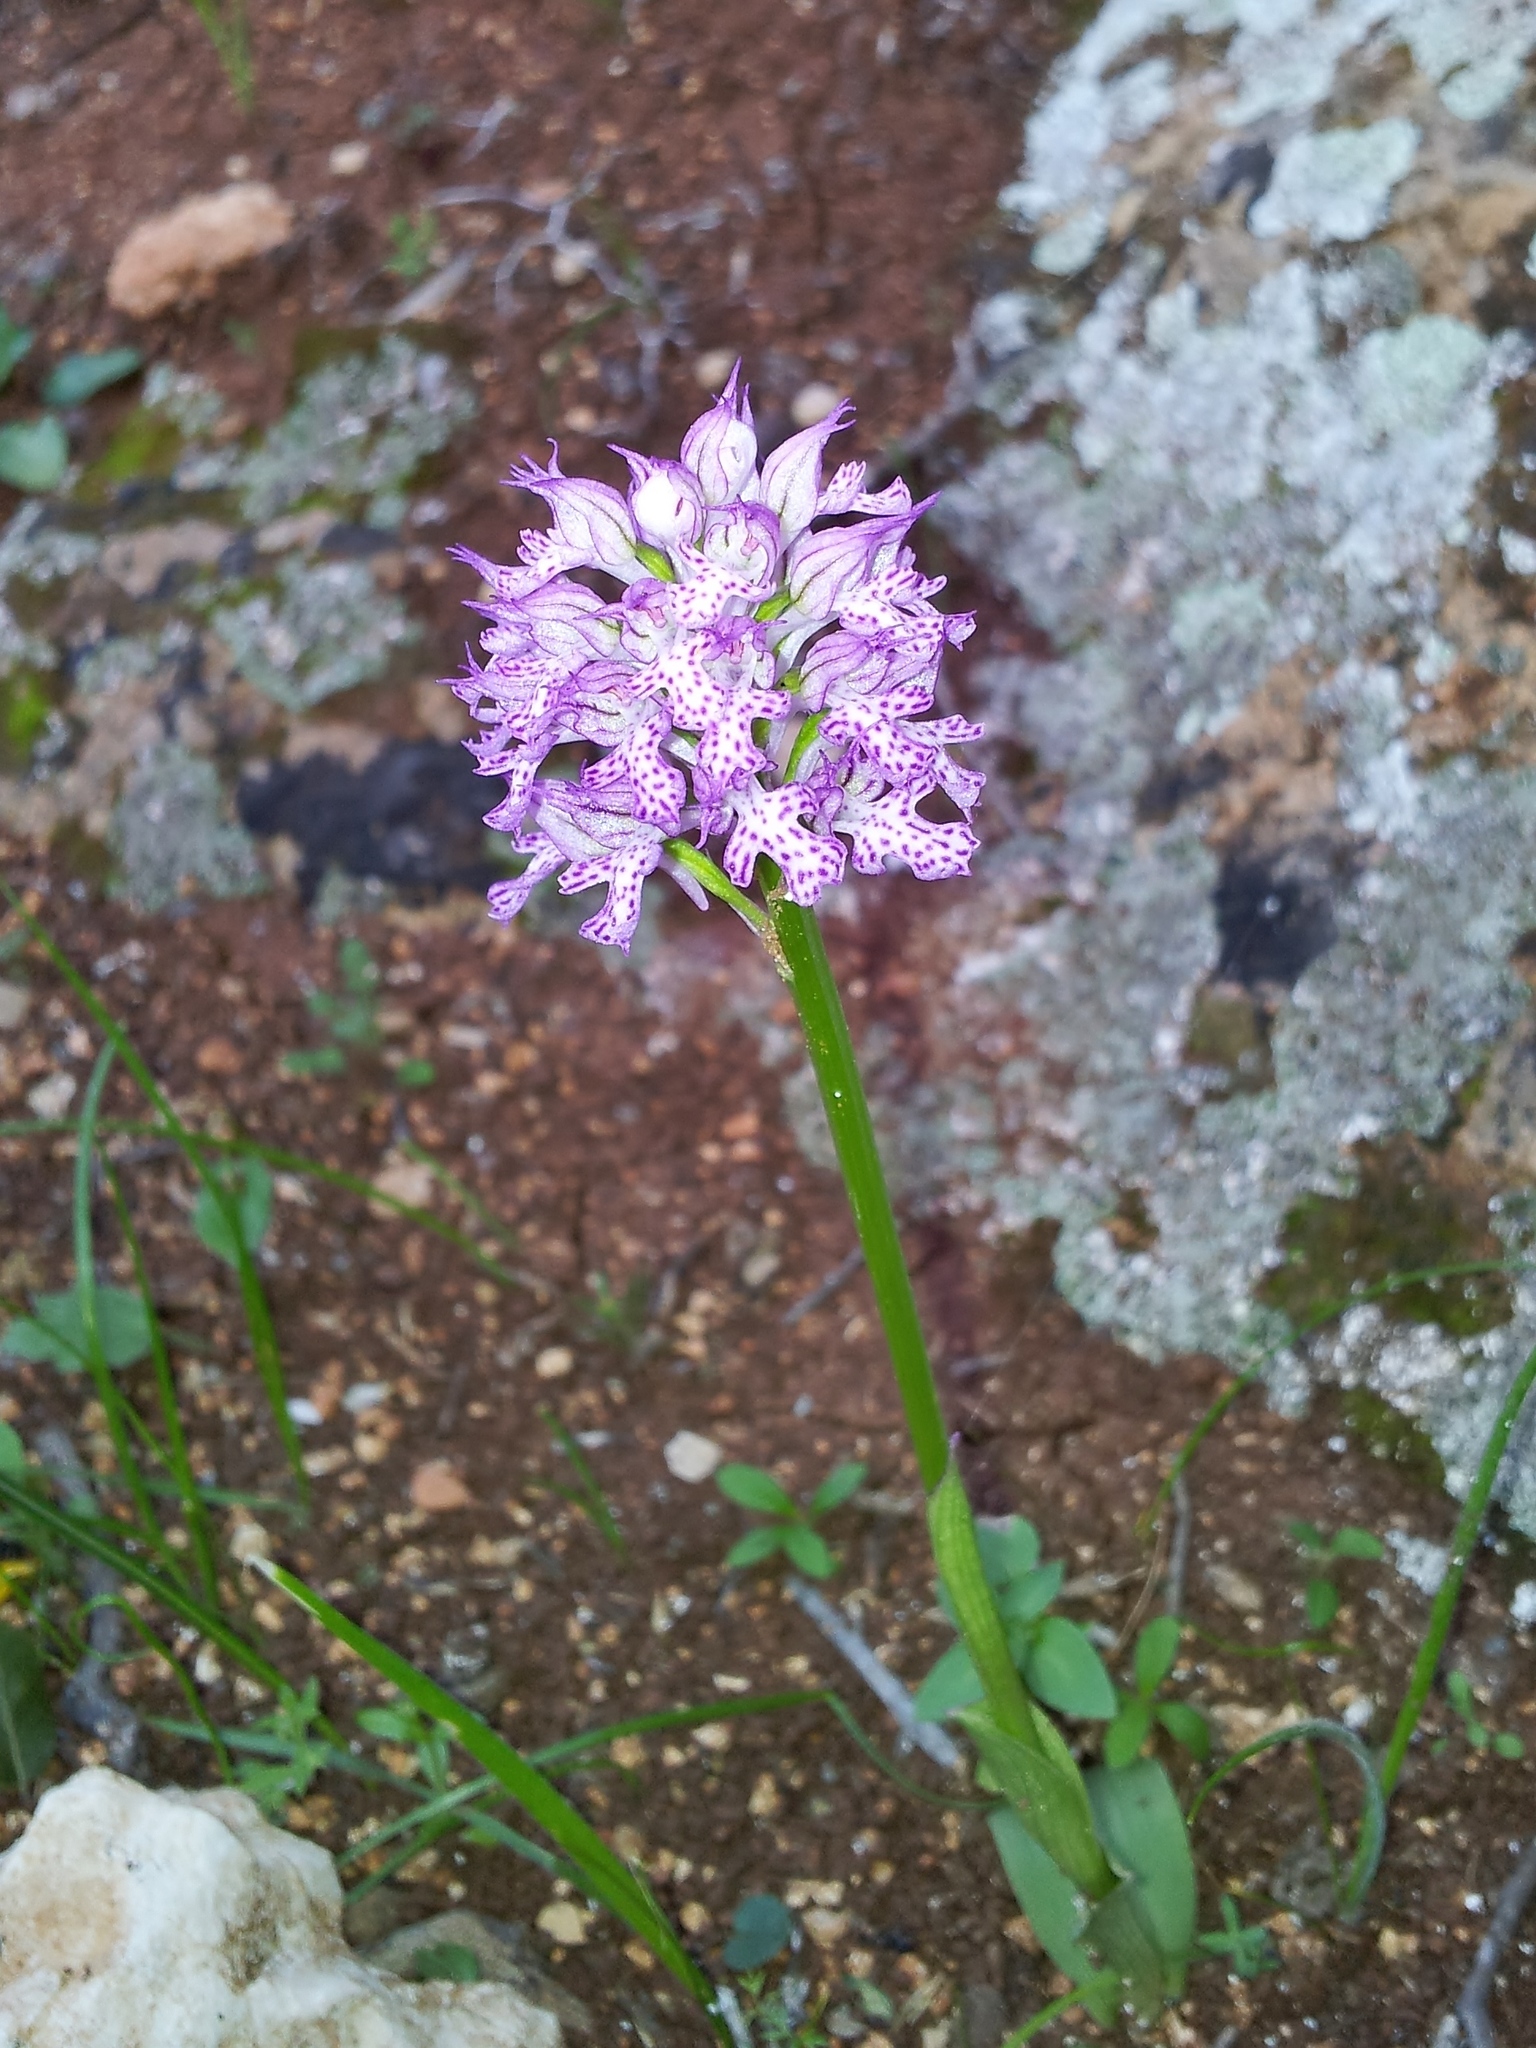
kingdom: Plantae
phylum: Tracheophyta
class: Liliopsida
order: Asparagales
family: Orchidaceae
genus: Neotinea
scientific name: Neotinea tridentata
